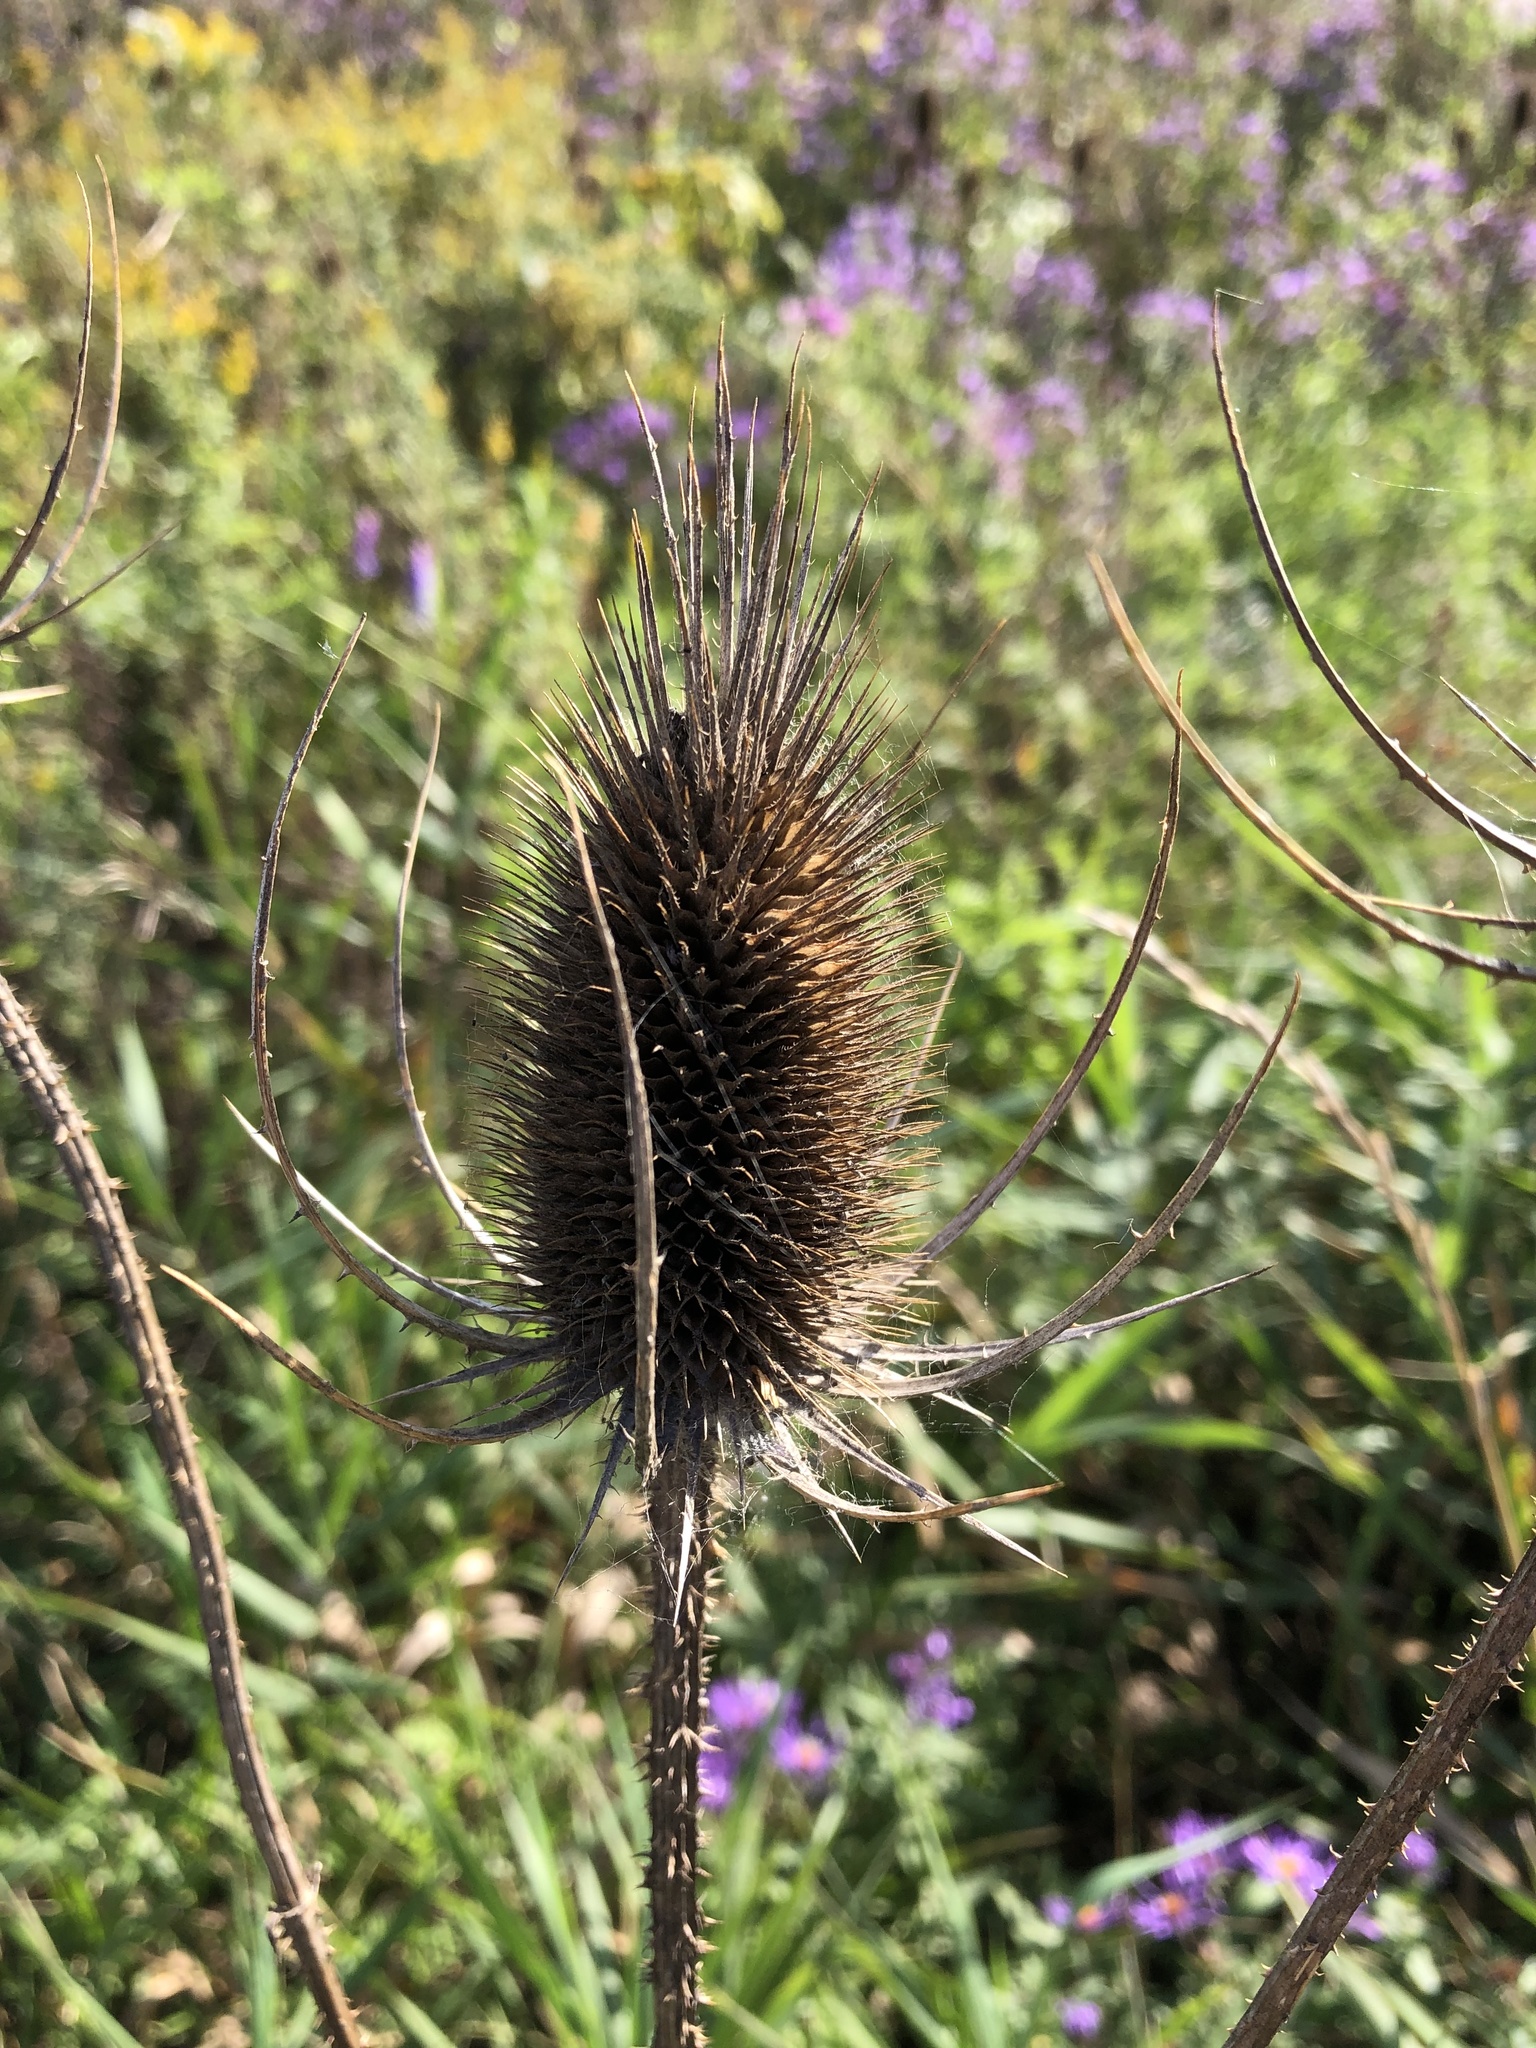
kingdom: Plantae
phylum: Tracheophyta
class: Magnoliopsida
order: Dipsacales
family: Caprifoliaceae
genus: Dipsacus
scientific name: Dipsacus fullonum
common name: Teasel
